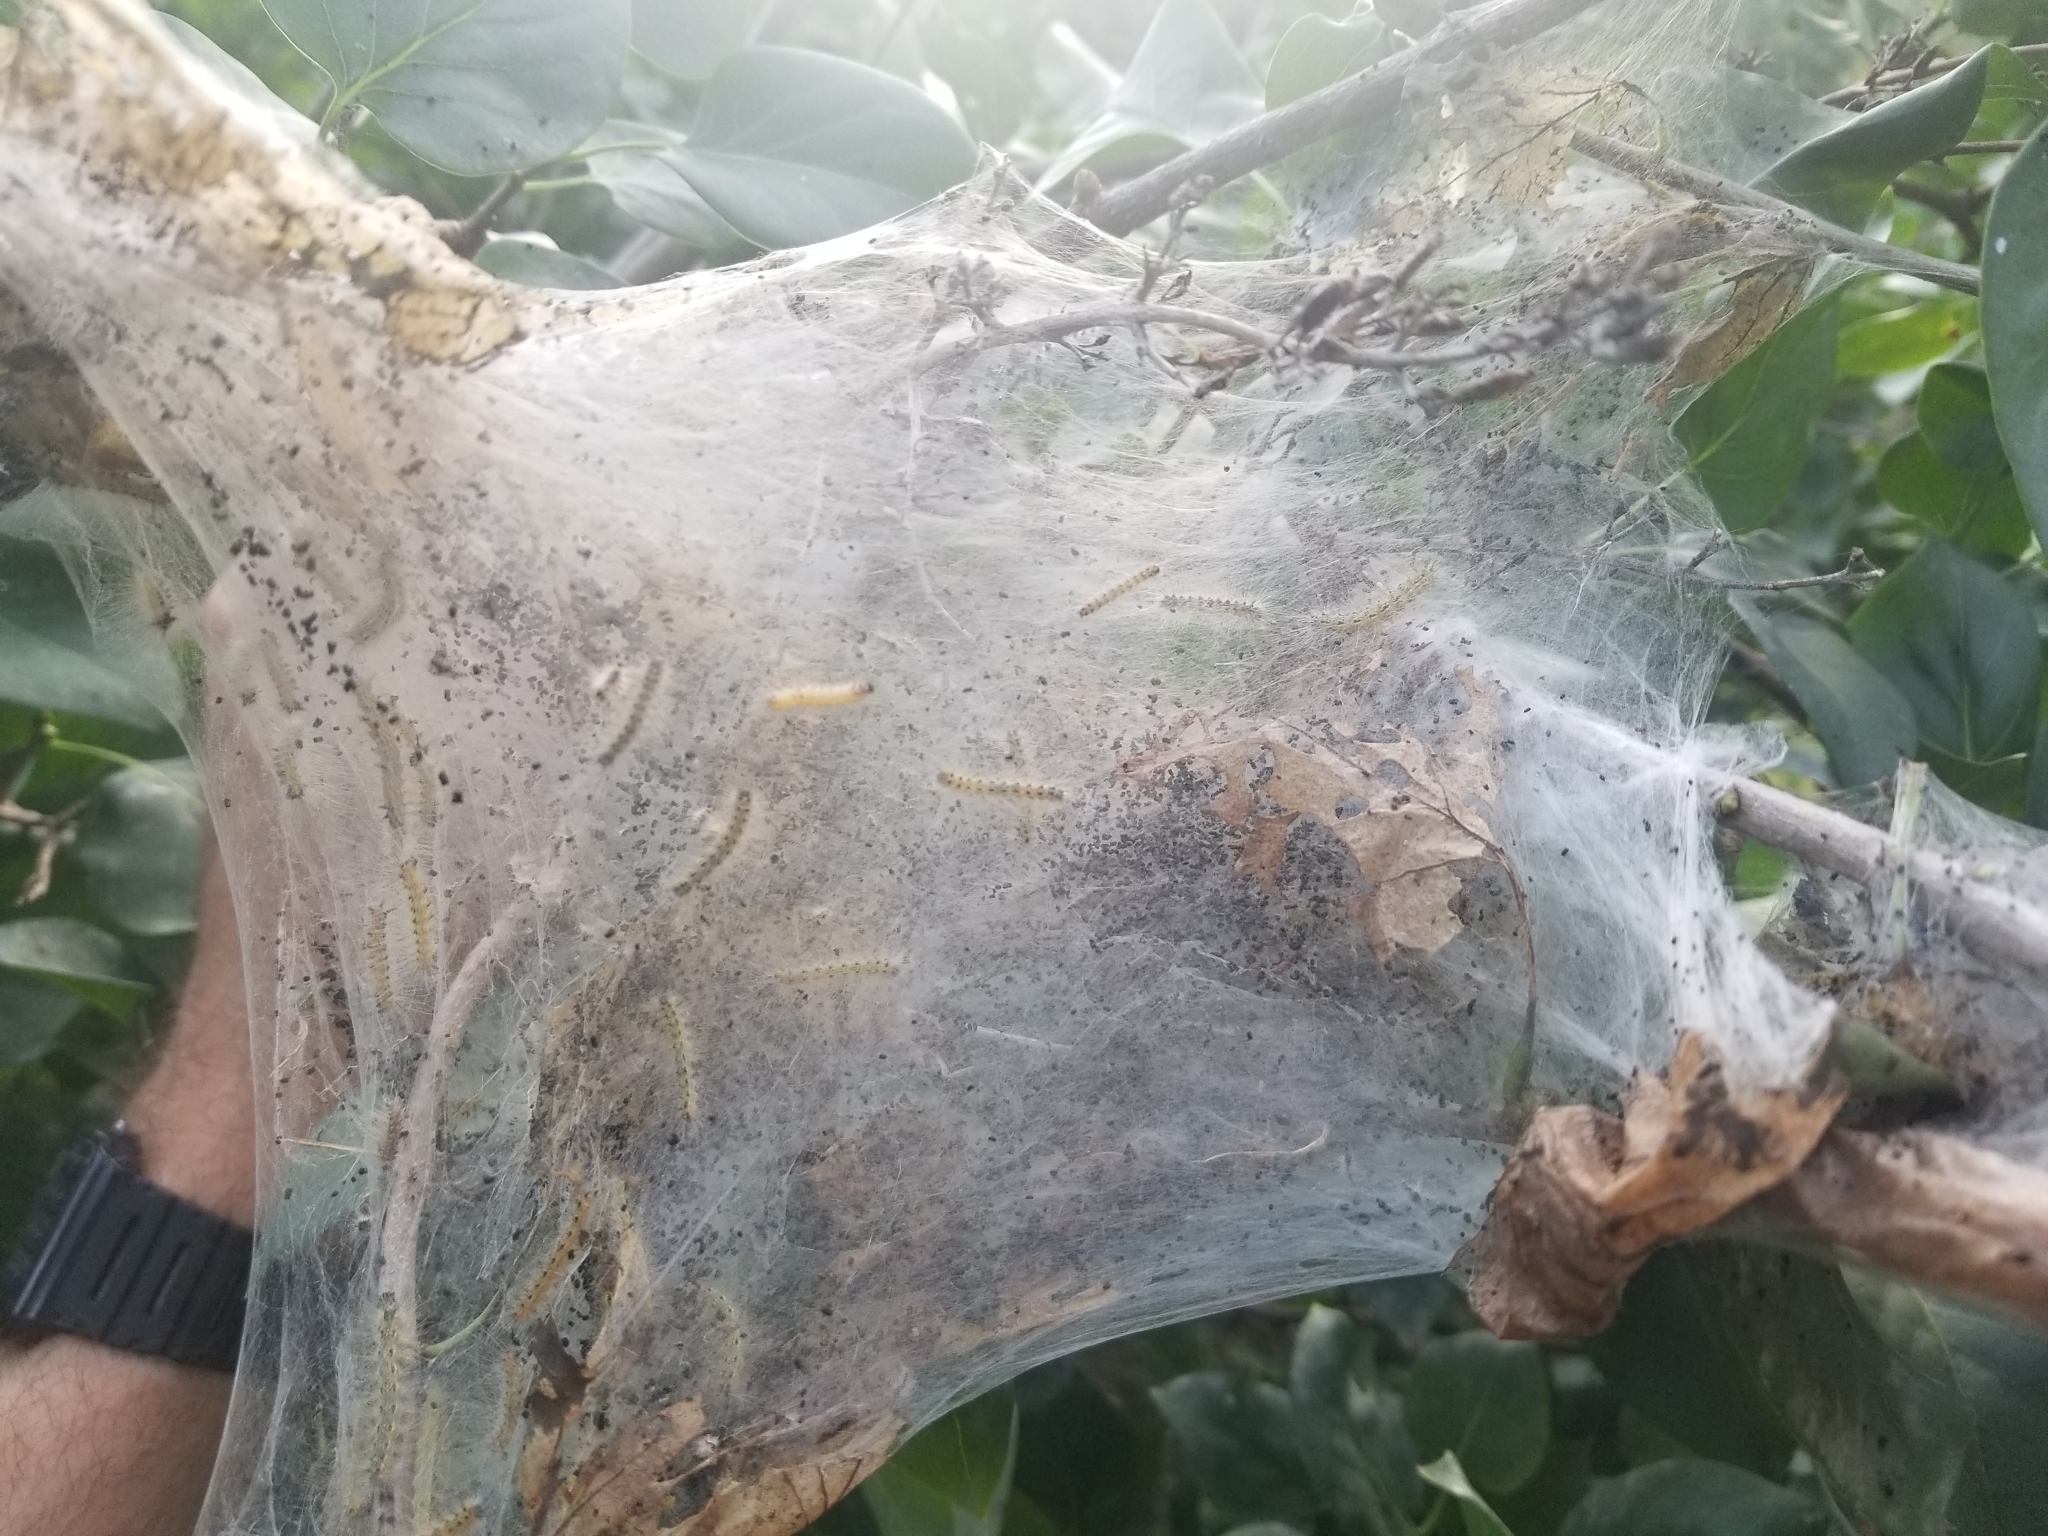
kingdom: Animalia
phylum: Arthropoda
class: Insecta
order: Lepidoptera
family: Erebidae
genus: Hyphantria
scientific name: Hyphantria cunea
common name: American white moth
